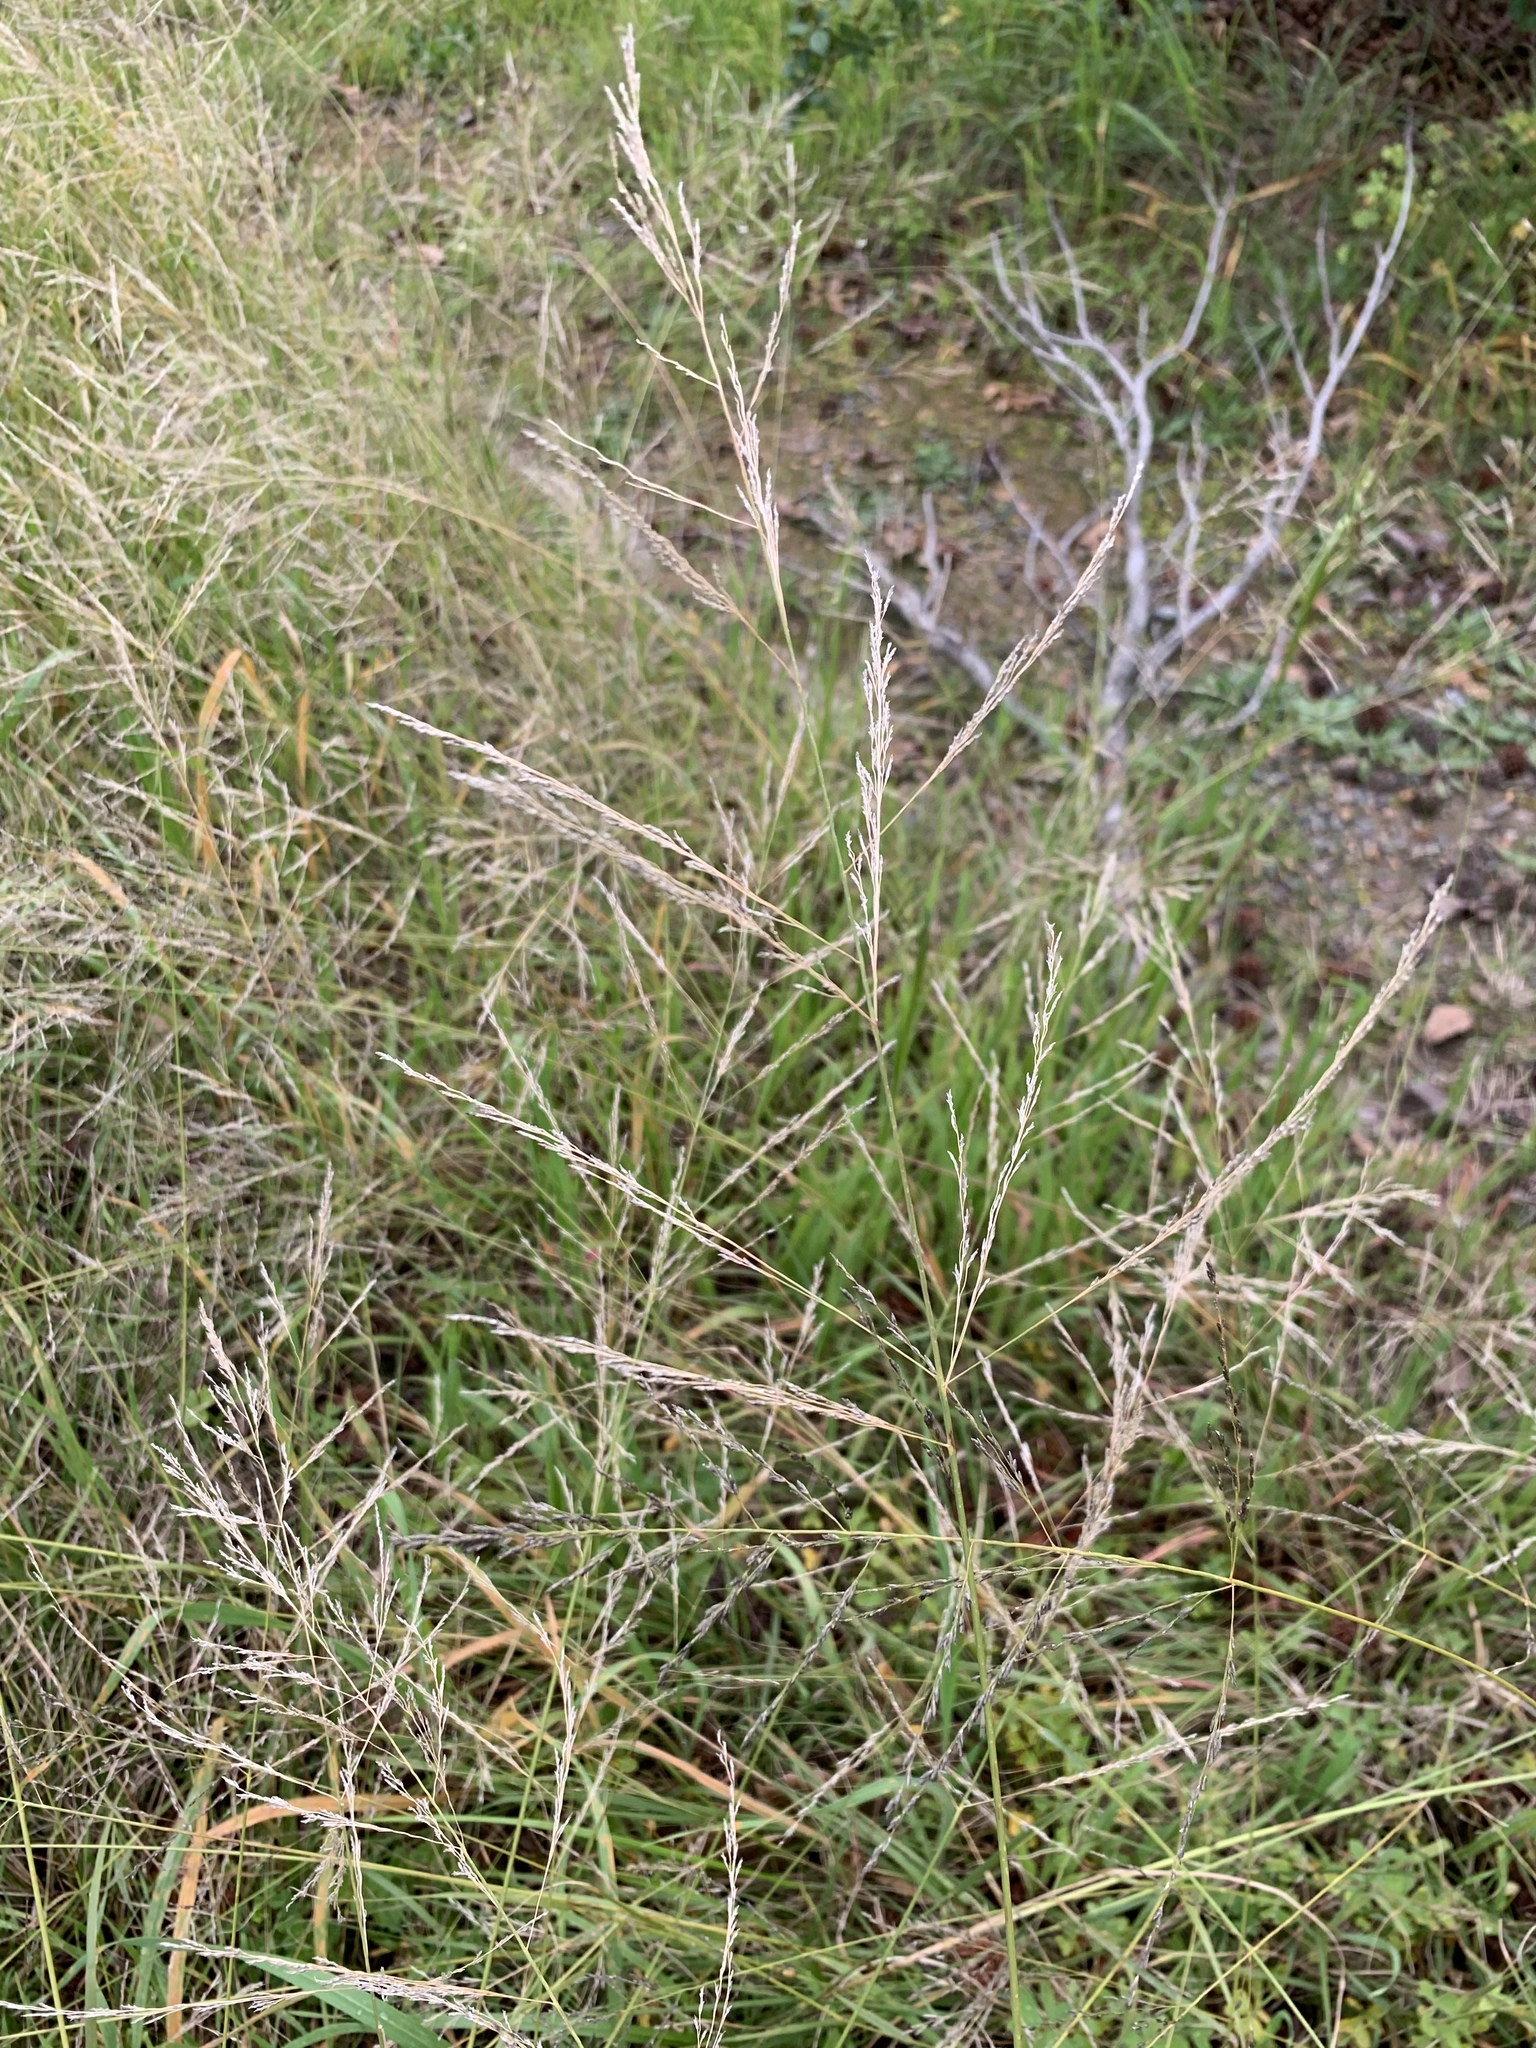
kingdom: Plantae
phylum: Tracheophyta
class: Liliopsida
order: Poales
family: Poaceae
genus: Eragrostis
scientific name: Eragrostis curvula
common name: African love-grass
